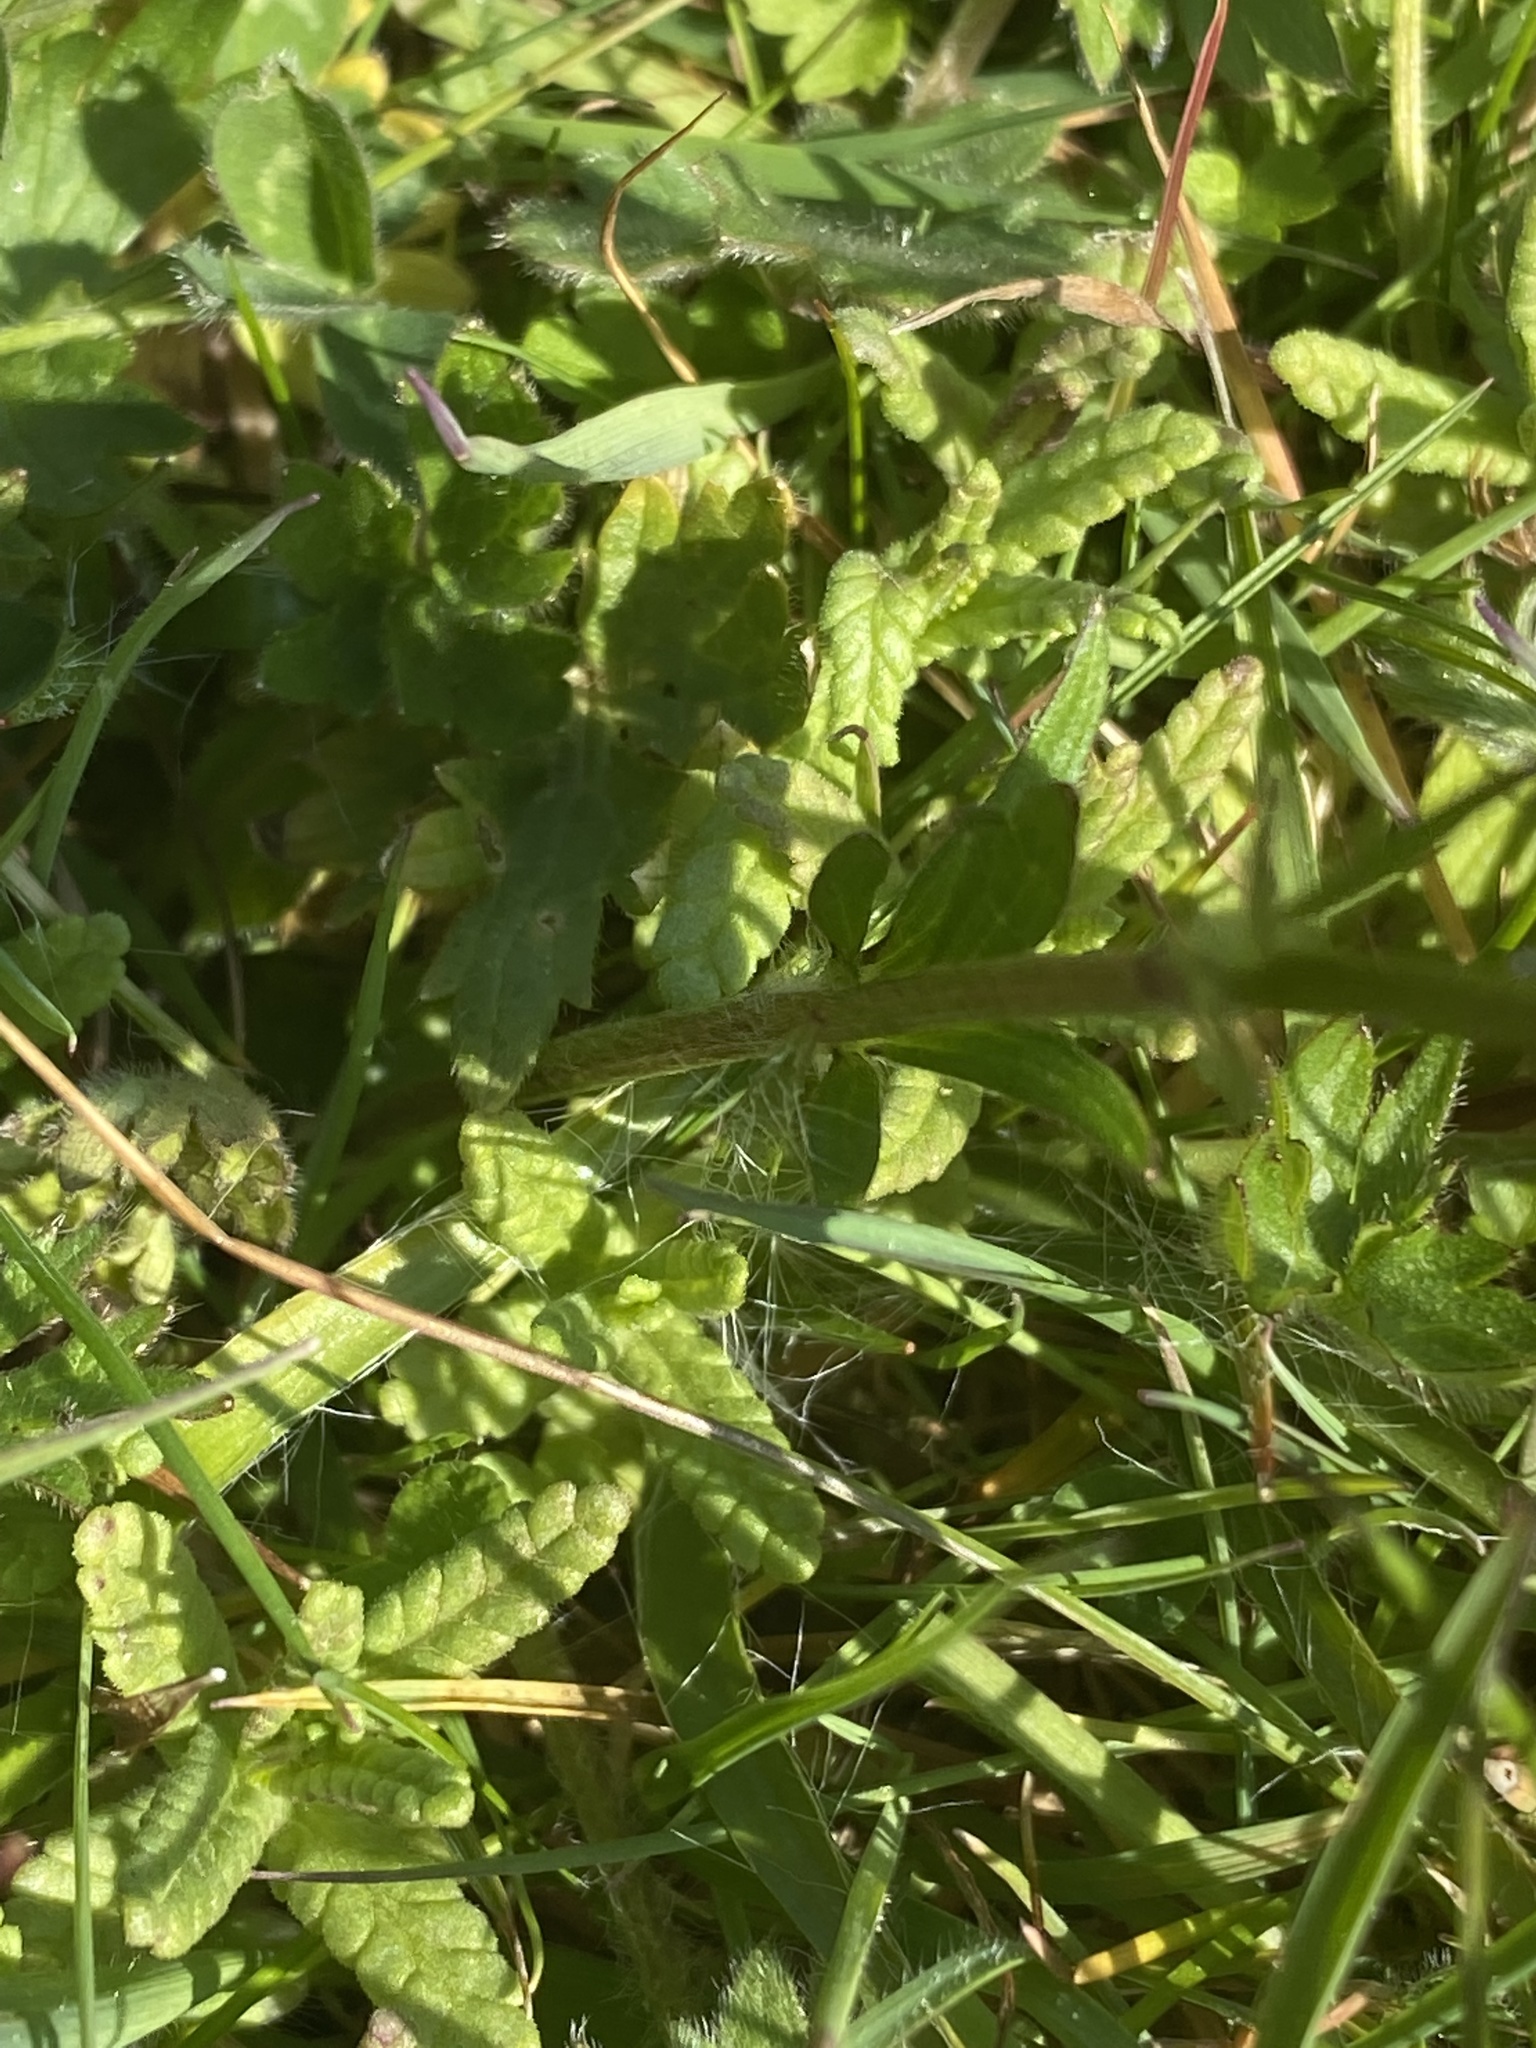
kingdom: Plantae
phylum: Tracheophyta
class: Magnoliopsida
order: Ranunculales
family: Ranunculaceae
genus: Ranunculus
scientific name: Ranunculus bulbosus
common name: Bulbous buttercup
